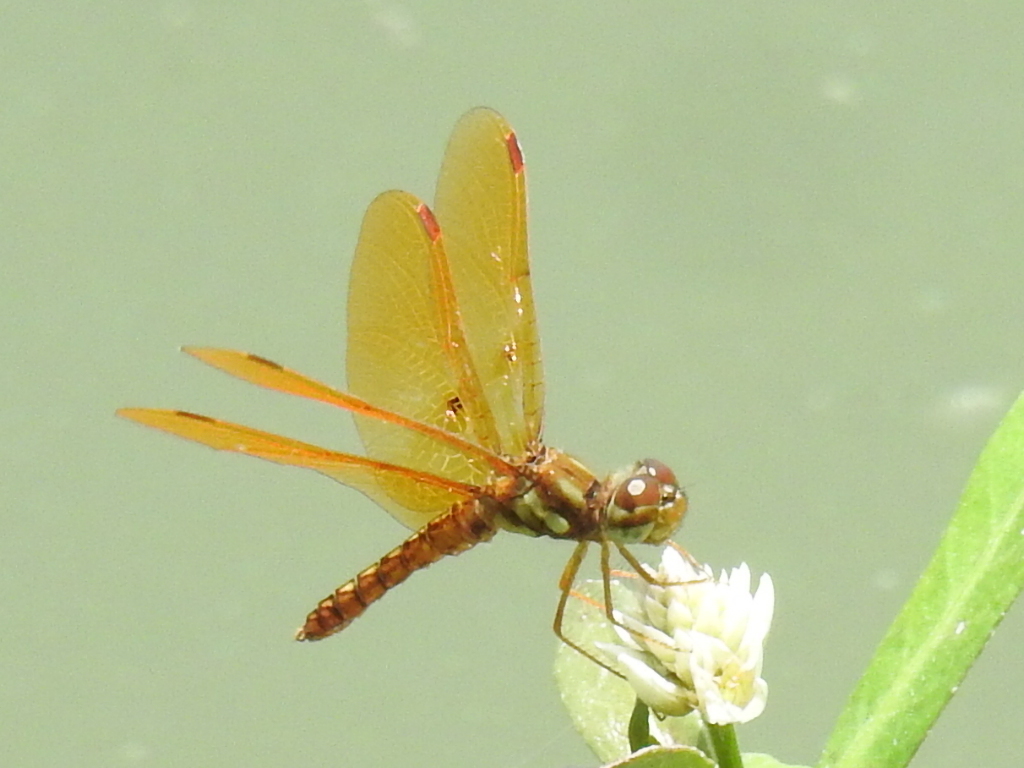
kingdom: Animalia
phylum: Arthropoda
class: Insecta
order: Odonata
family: Libellulidae
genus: Perithemis
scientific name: Perithemis tenera
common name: Eastern amberwing
